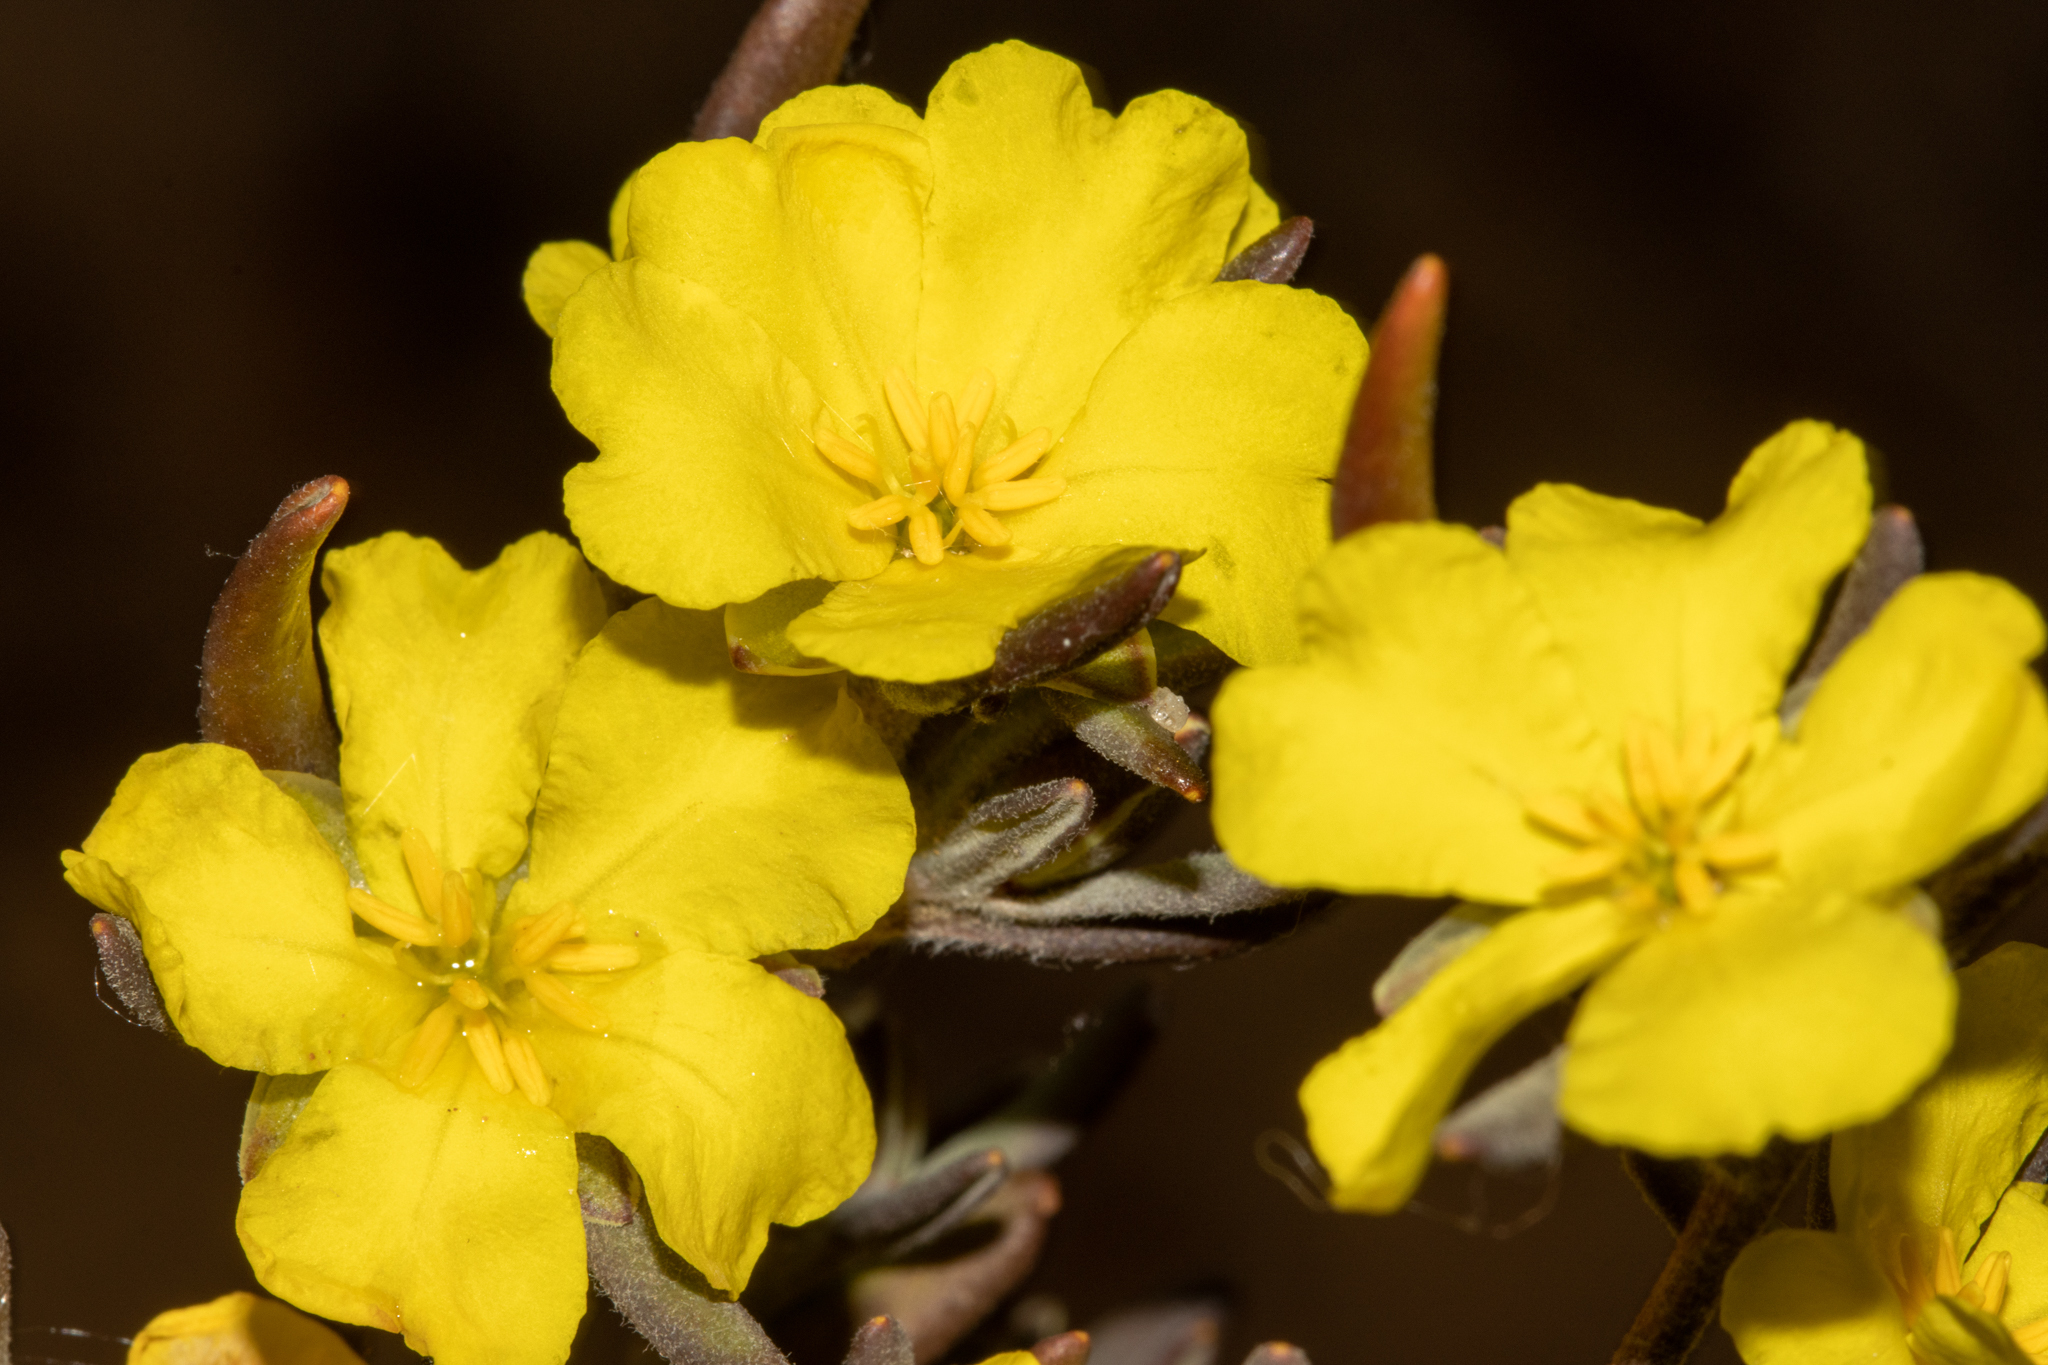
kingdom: Plantae
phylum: Tracheophyta
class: Magnoliopsida
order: Dilleniales
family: Dilleniaceae
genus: Hibbertia
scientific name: Hibbertia pubens
